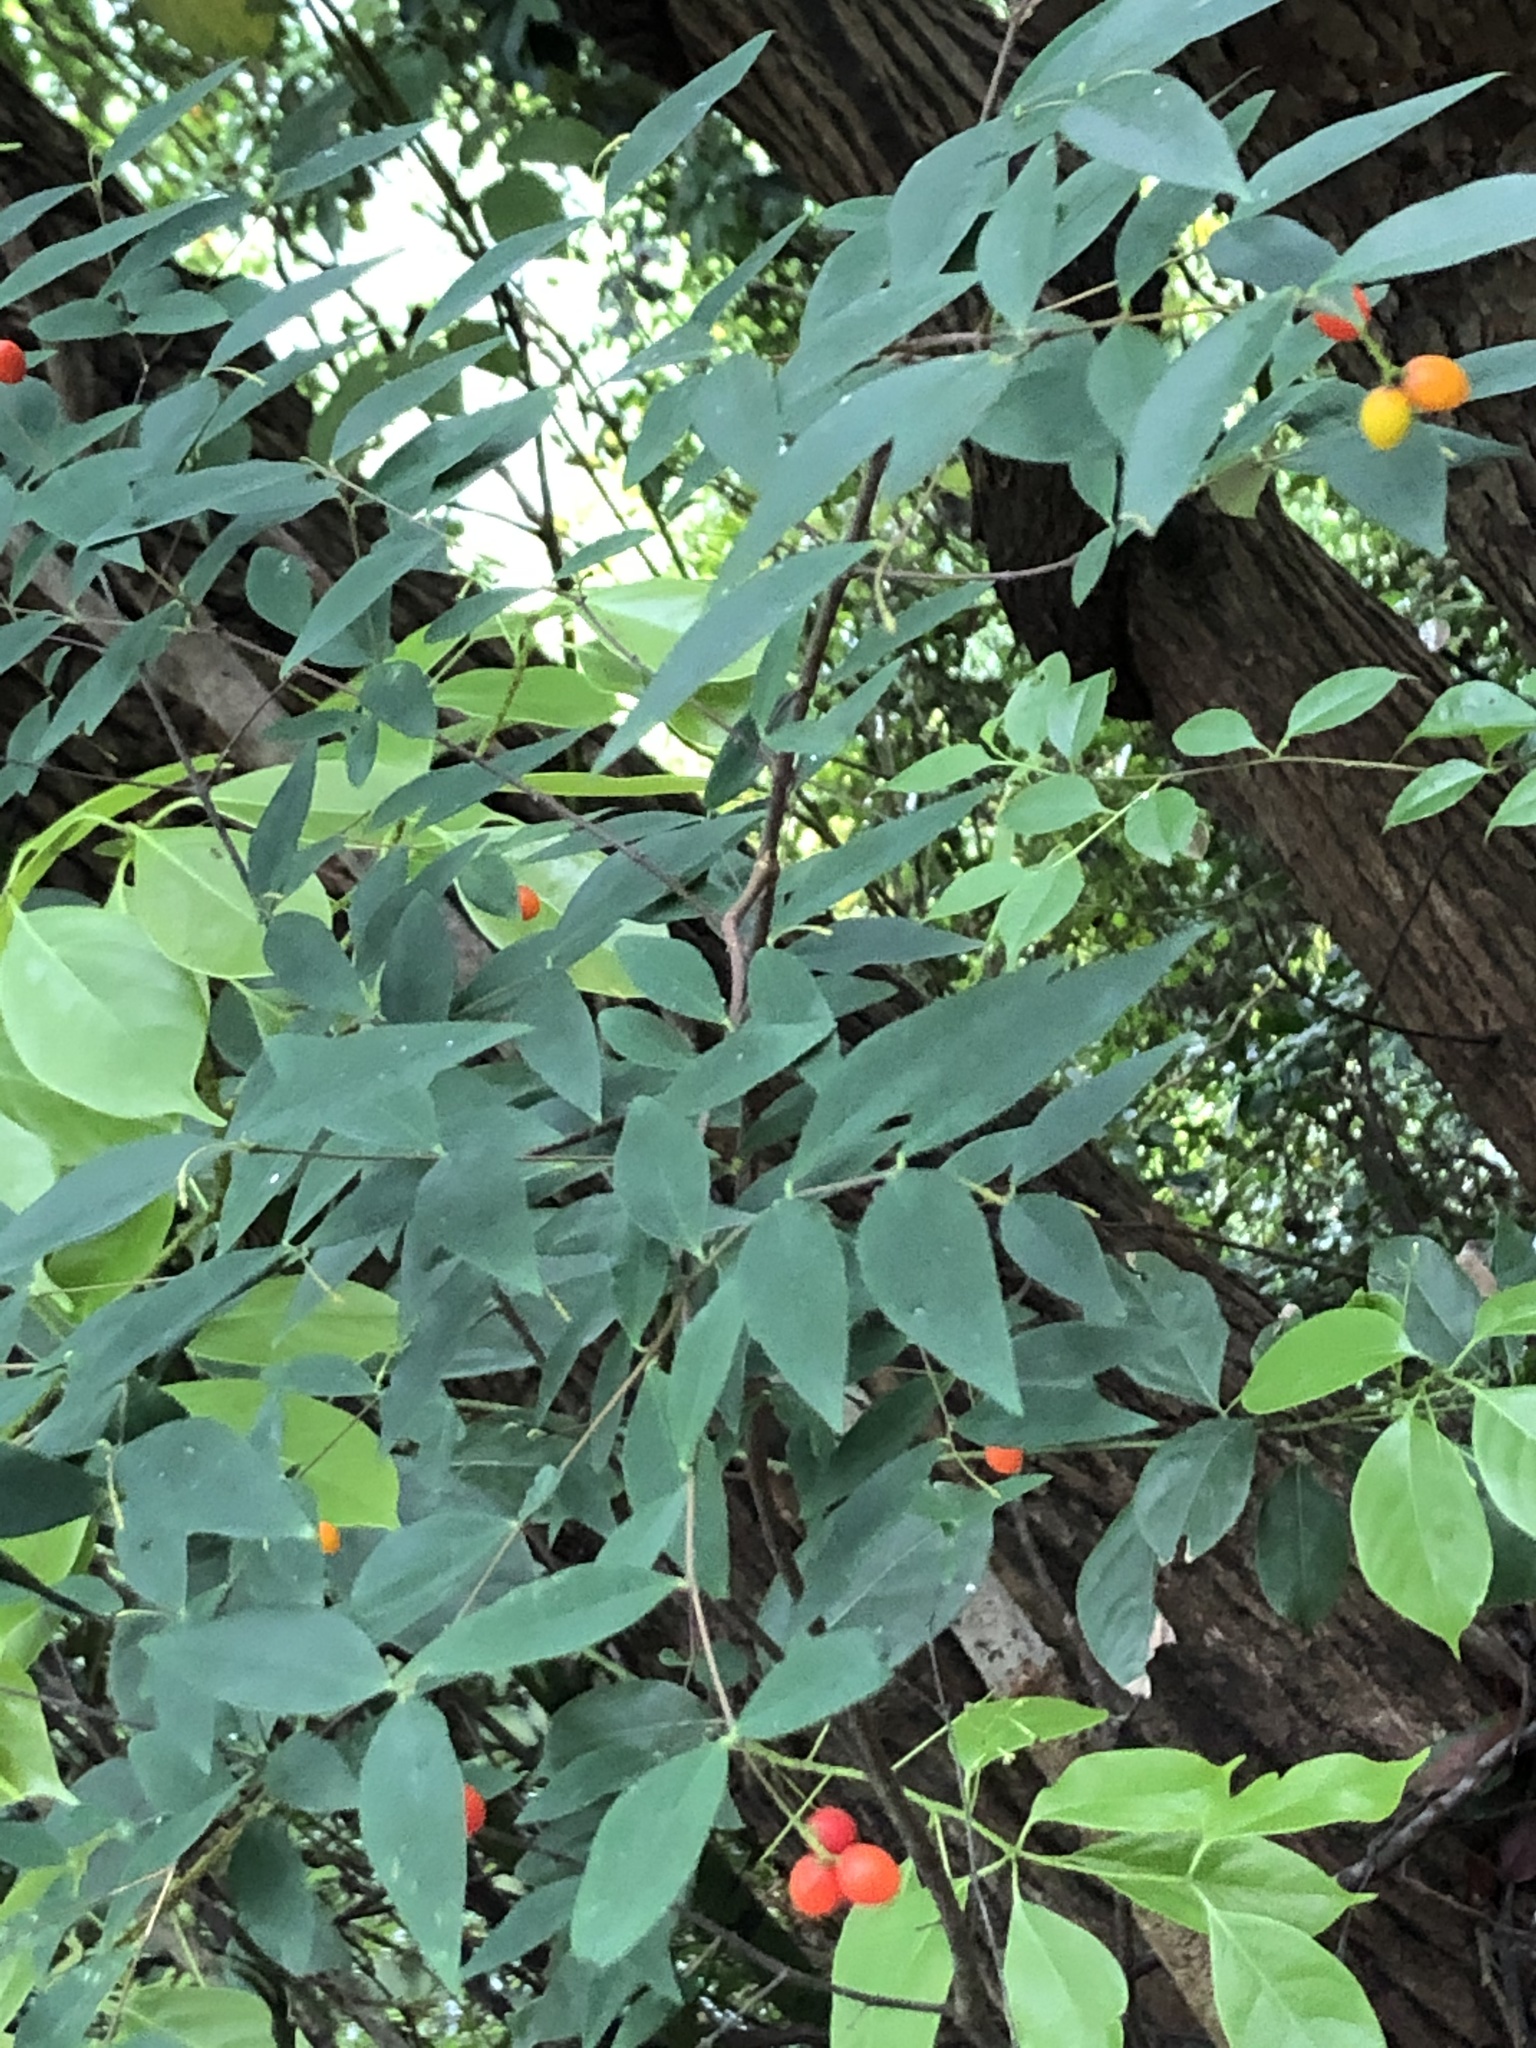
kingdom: Plantae
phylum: Tracheophyta
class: Magnoliopsida
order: Malvales
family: Thymelaeaceae
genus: Wikstroemia
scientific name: Wikstroemia nutans
